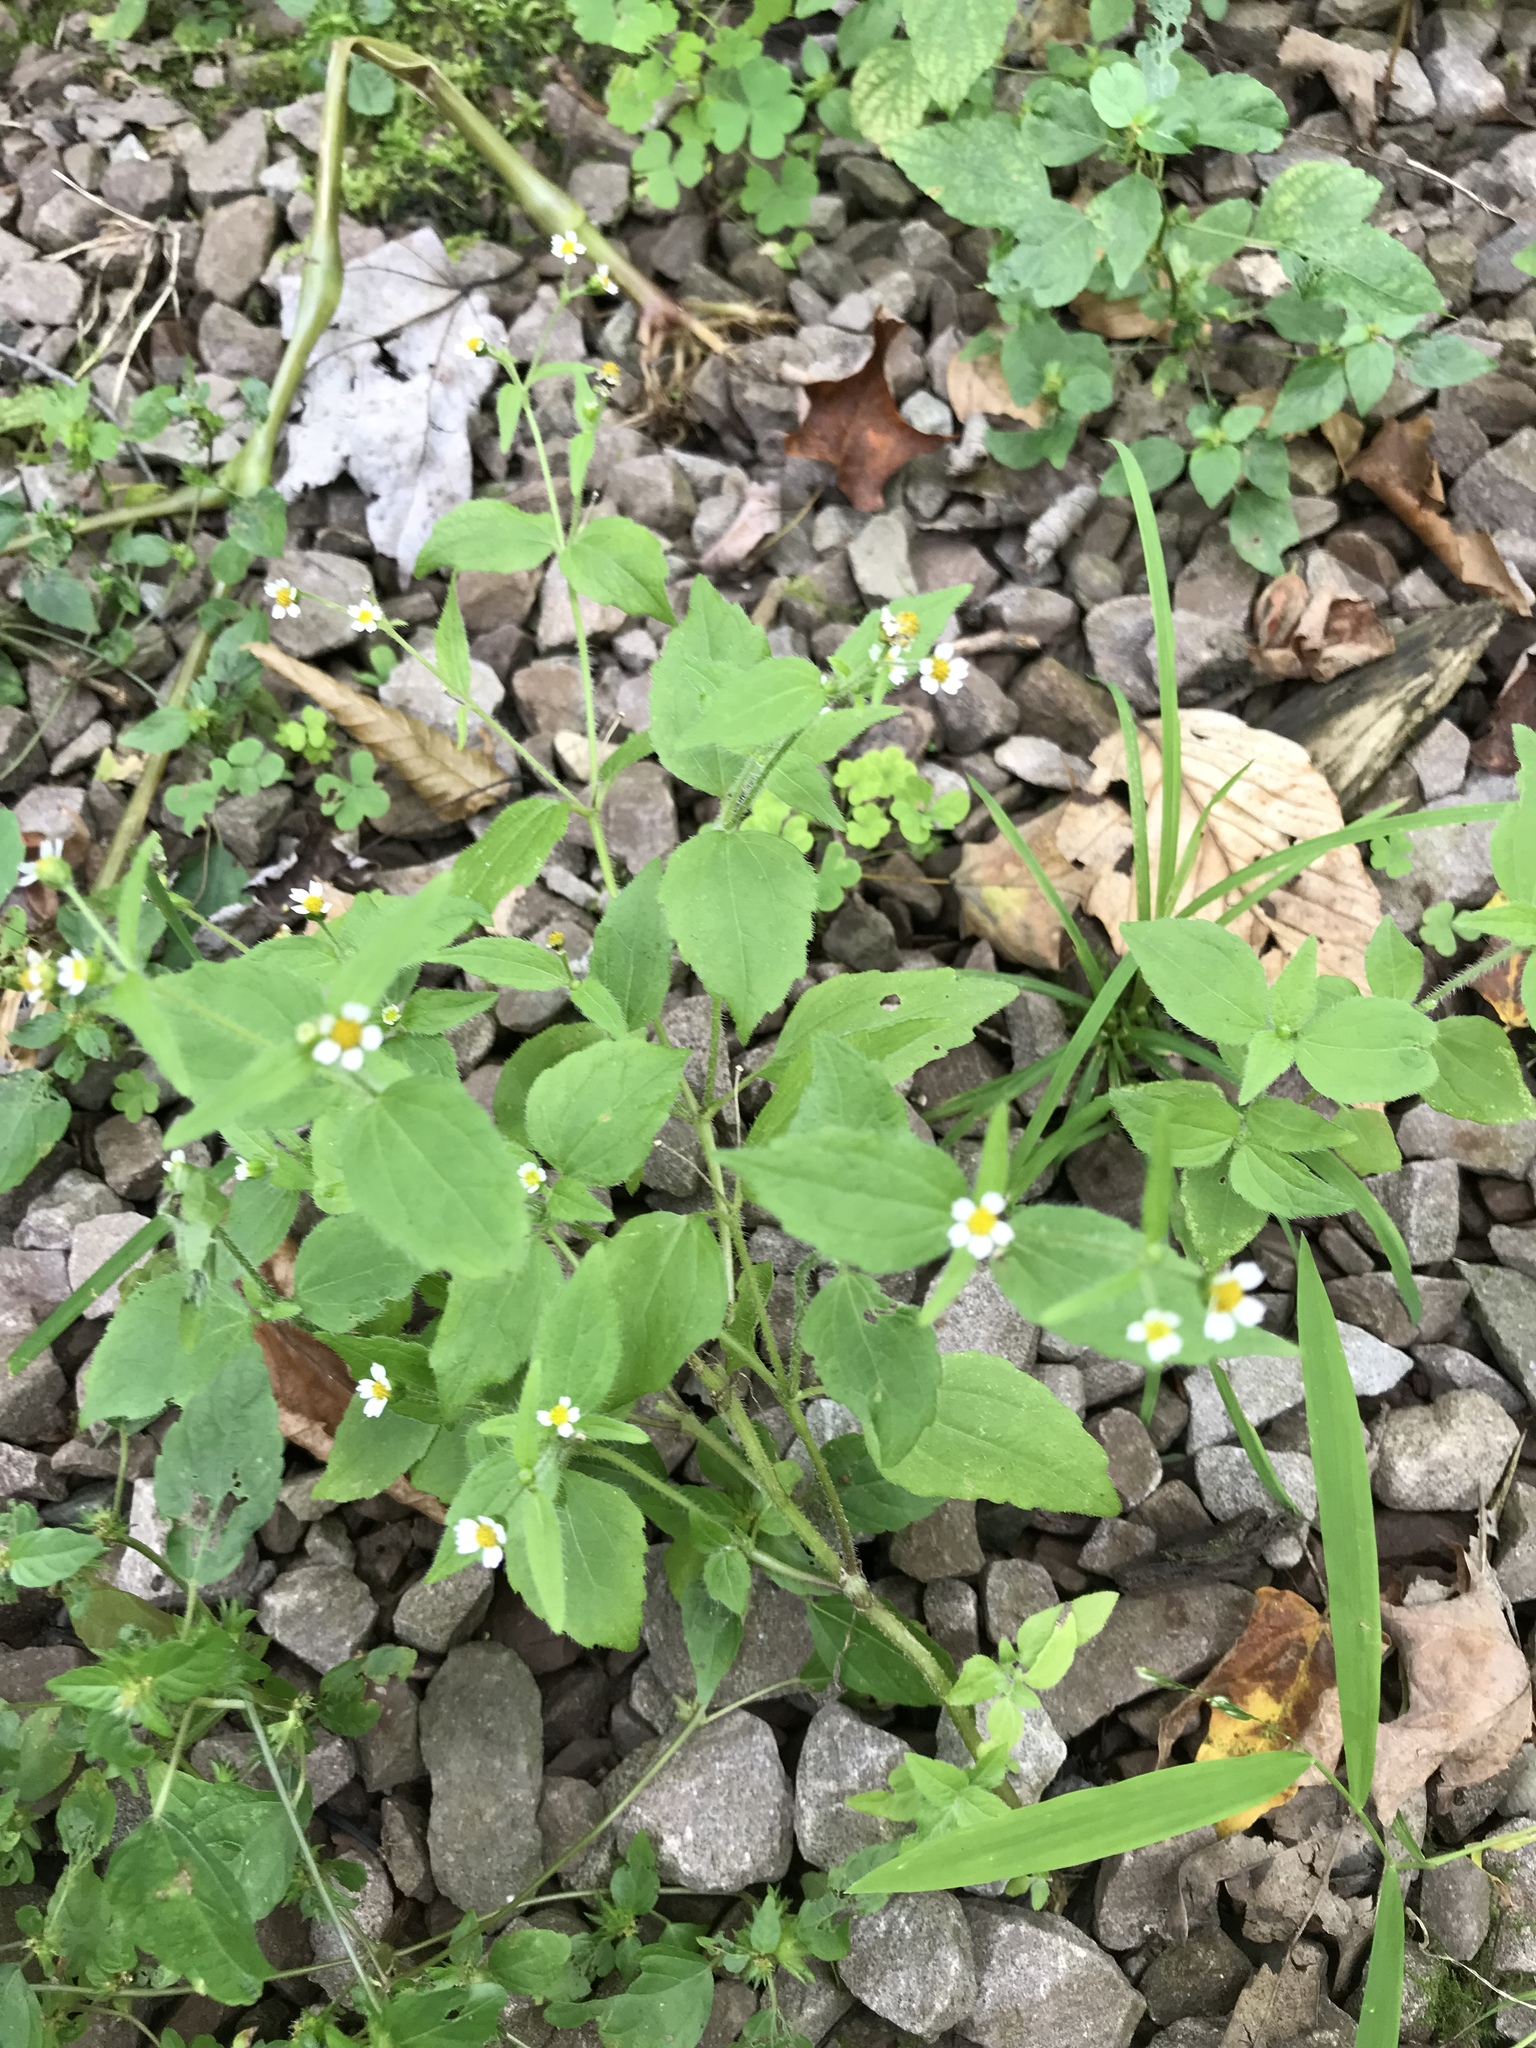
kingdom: Plantae
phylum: Tracheophyta
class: Magnoliopsida
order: Asterales
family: Asteraceae
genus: Galinsoga
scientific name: Galinsoga quadriradiata
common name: Shaggy soldier
